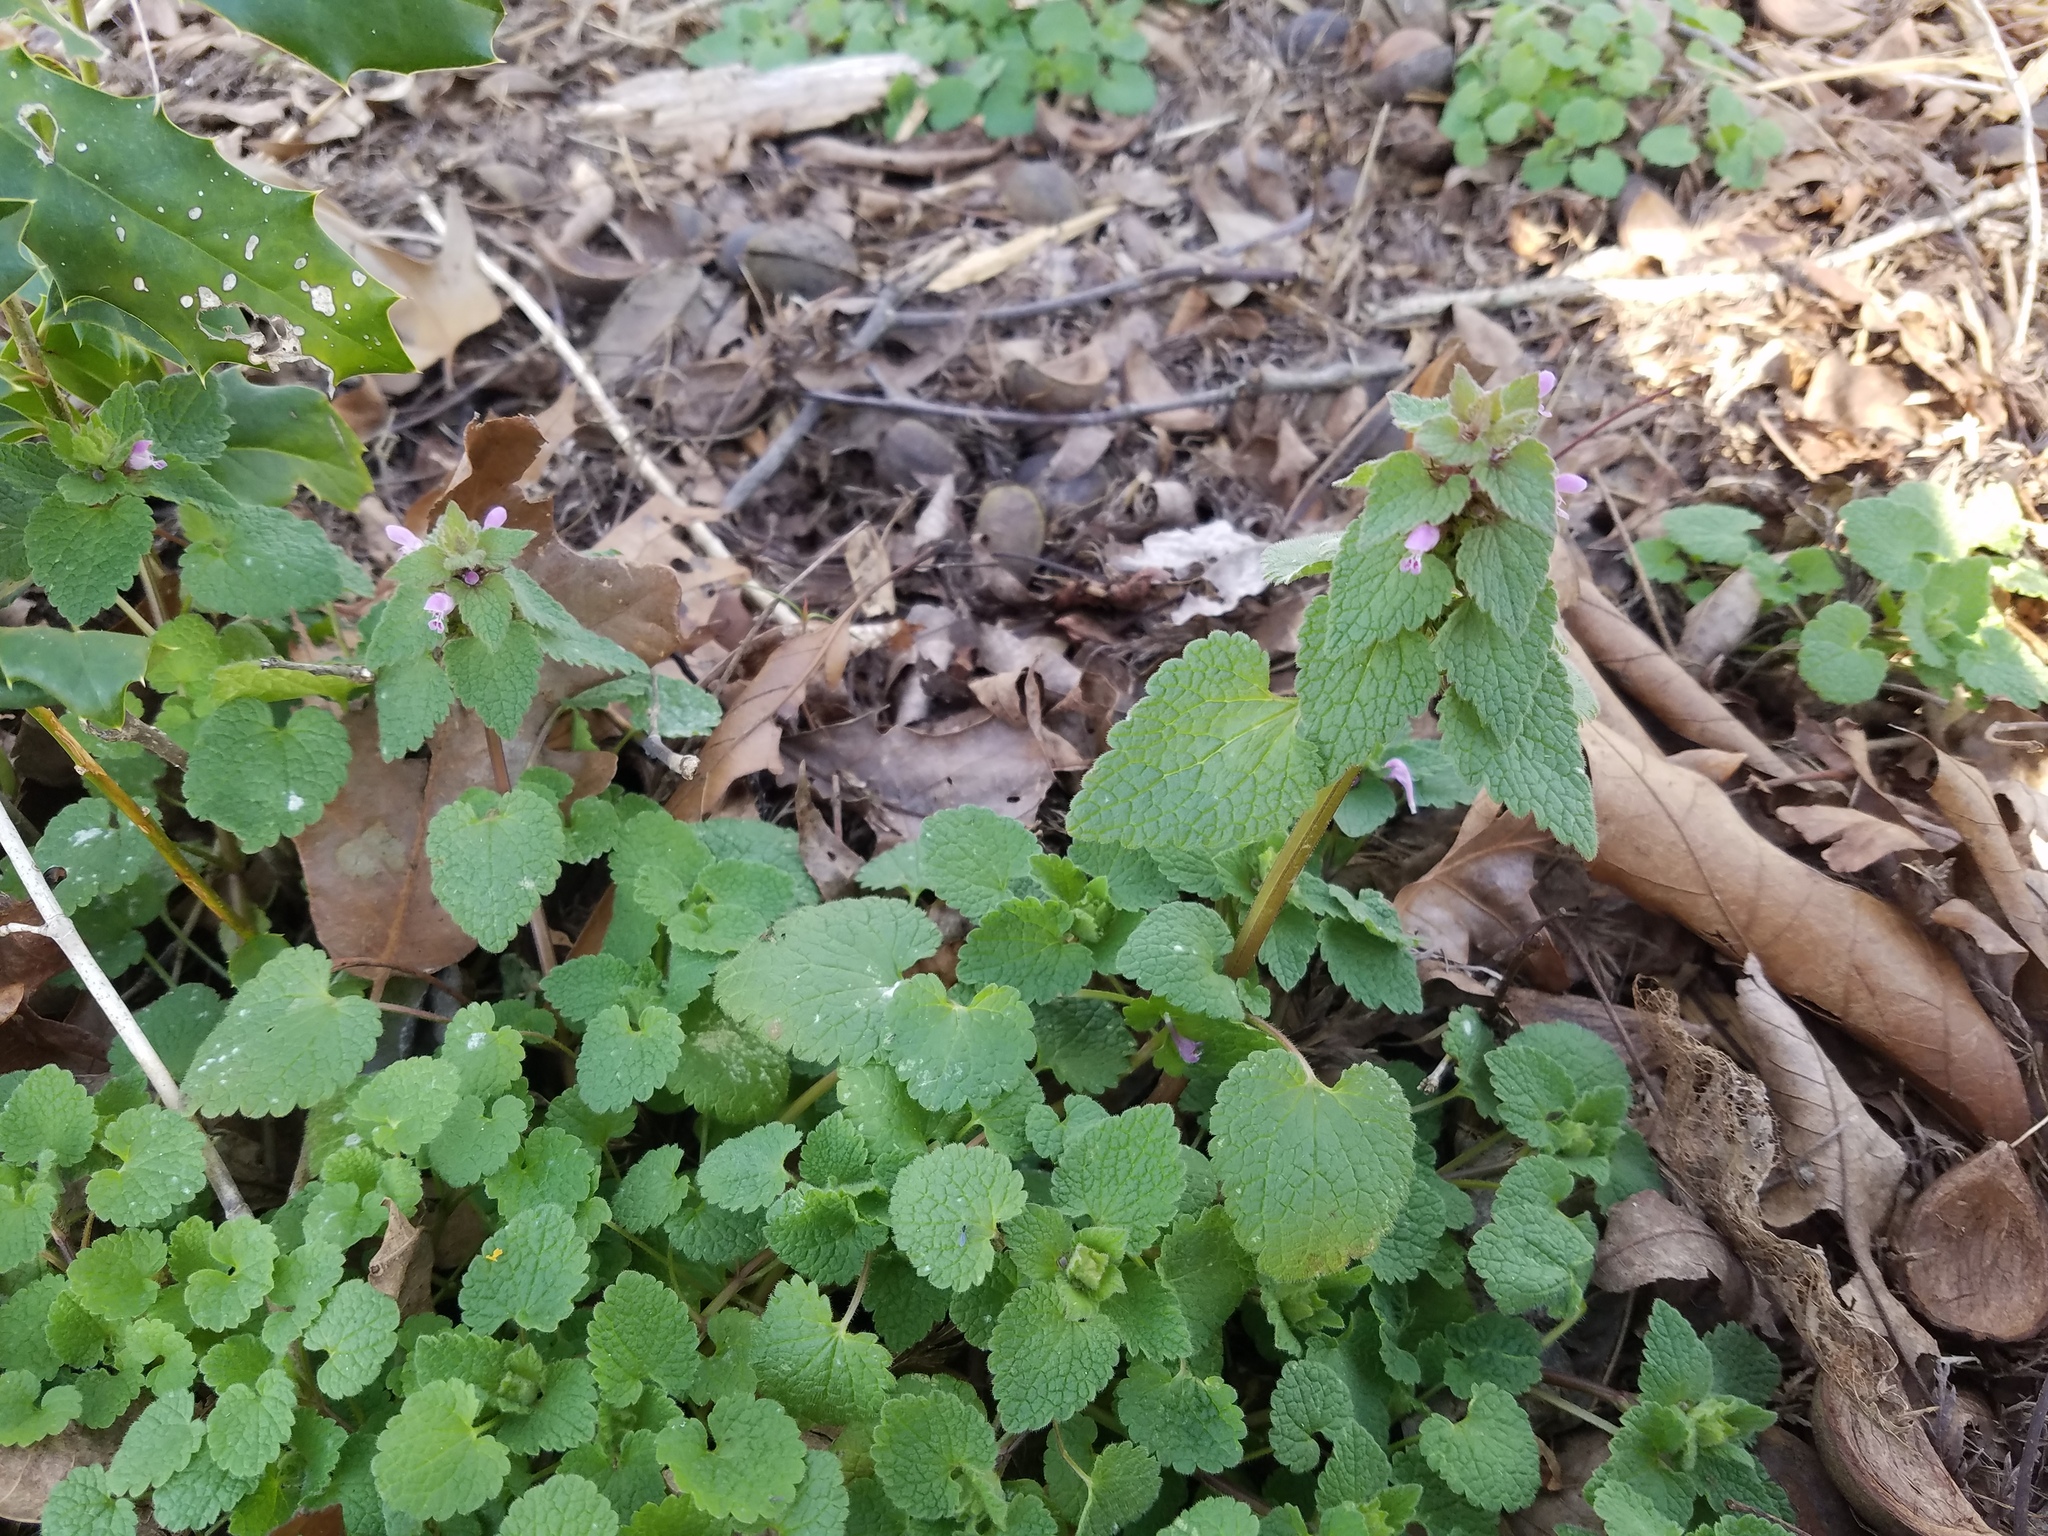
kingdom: Plantae
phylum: Tracheophyta
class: Magnoliopsida
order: Lamiales
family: Lamiaceae
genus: Lamium
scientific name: Lamium purpureum
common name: Red dead-nettle
